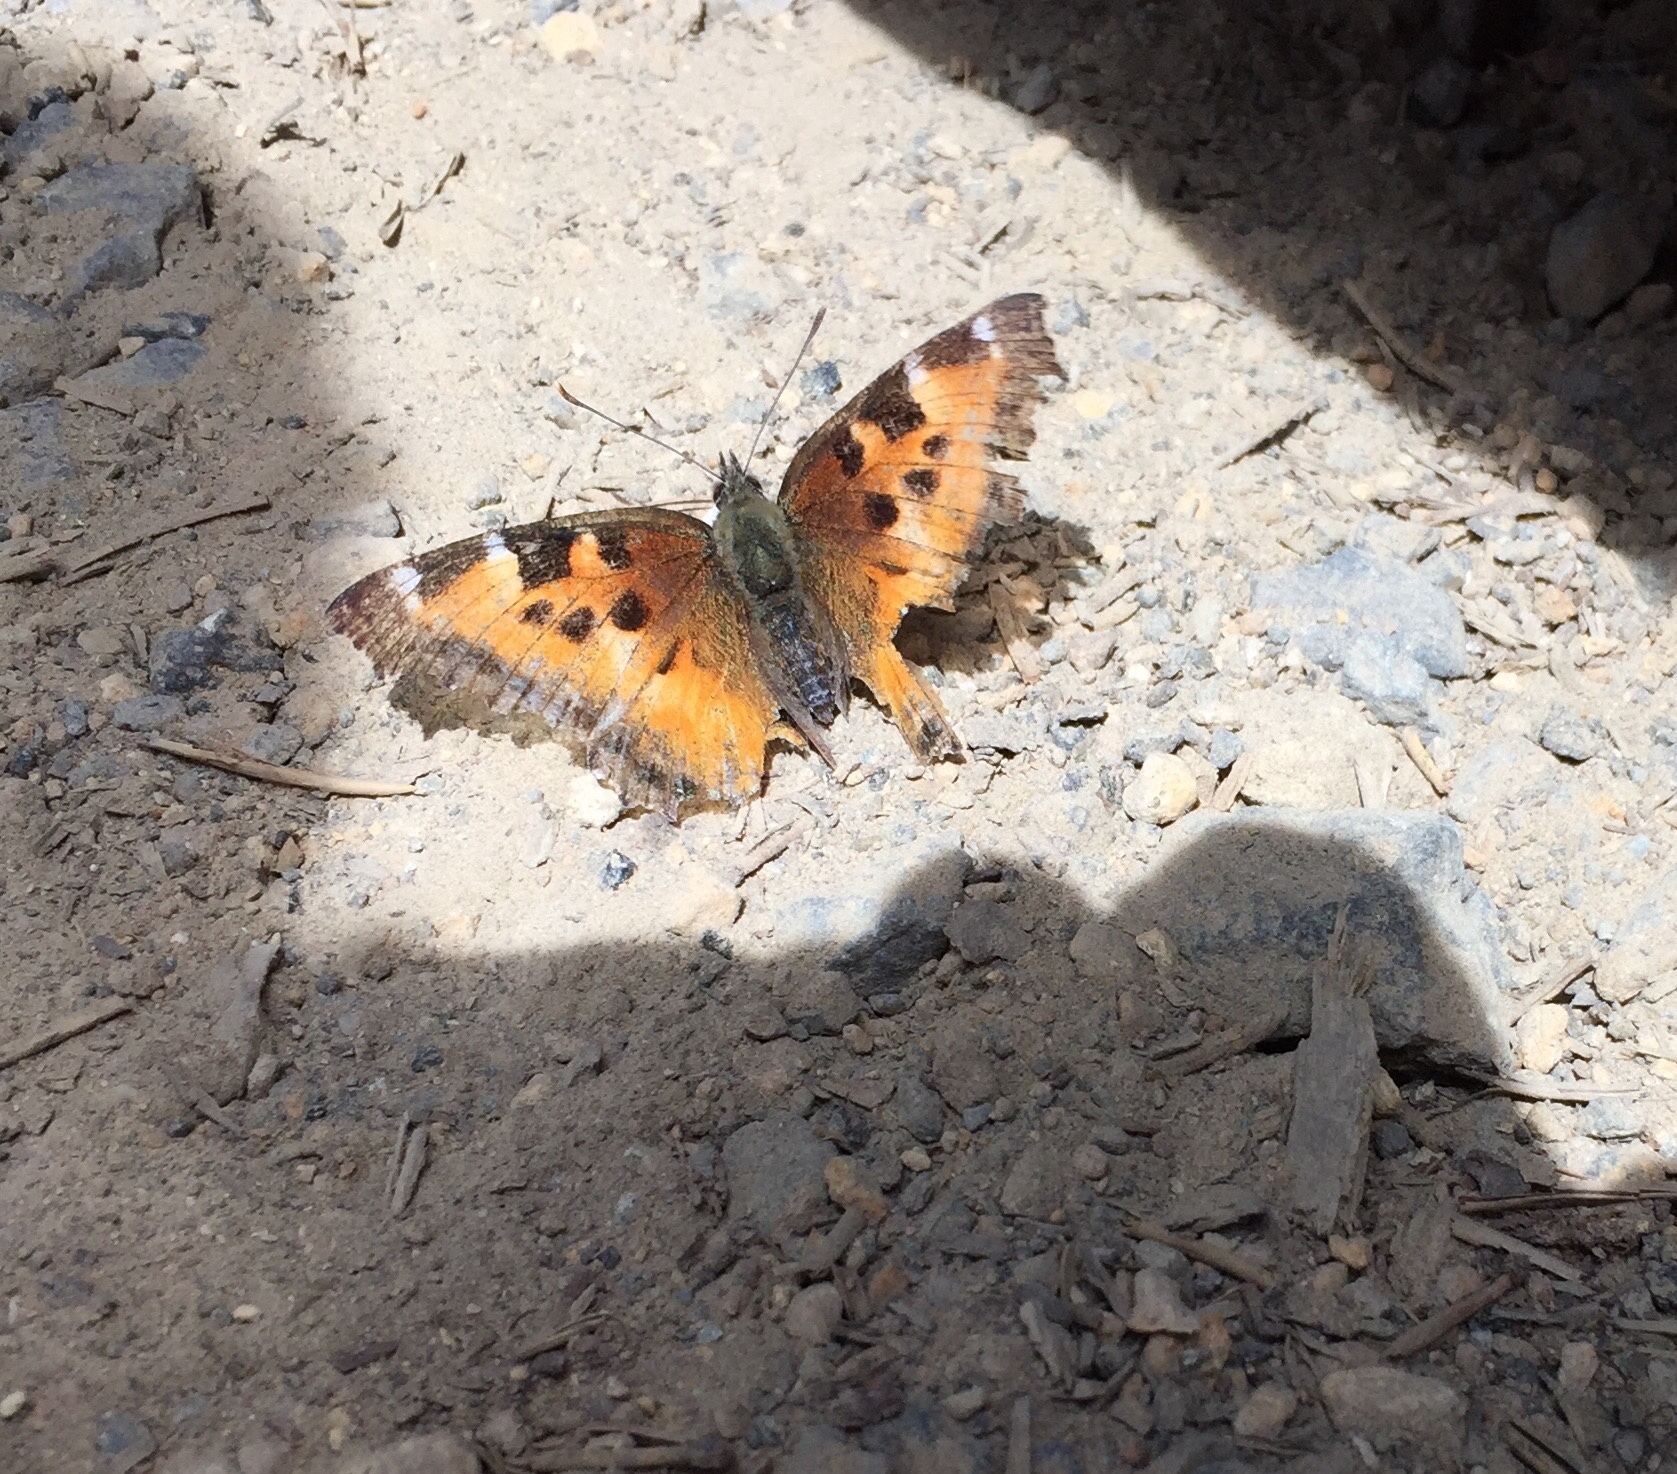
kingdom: Animalia
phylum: Arthropoda
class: Insecta
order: Lepidoptera
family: Nymphalidae
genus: Nymphalis
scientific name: Nymphalis californica
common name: California tortoiseshell
